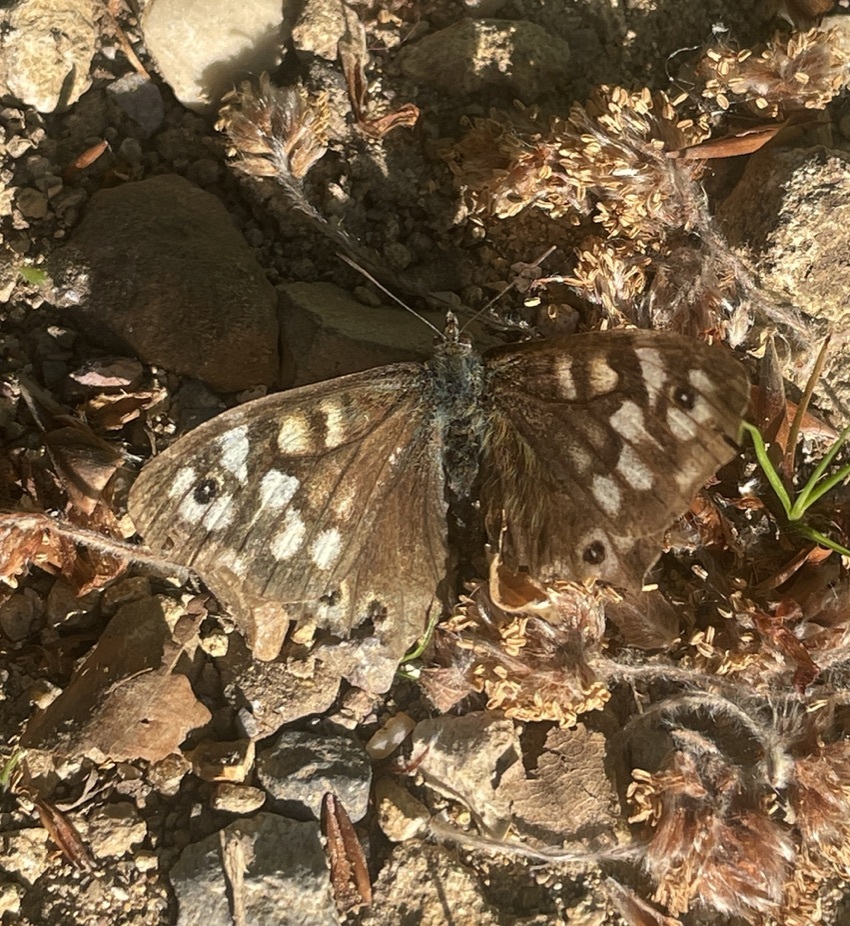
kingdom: Animalia
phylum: Arthropoda
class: Insecta
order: Lepidoptera
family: Nymphalidae
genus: Pararge
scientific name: Pararge aegeria
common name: Speckled wood
